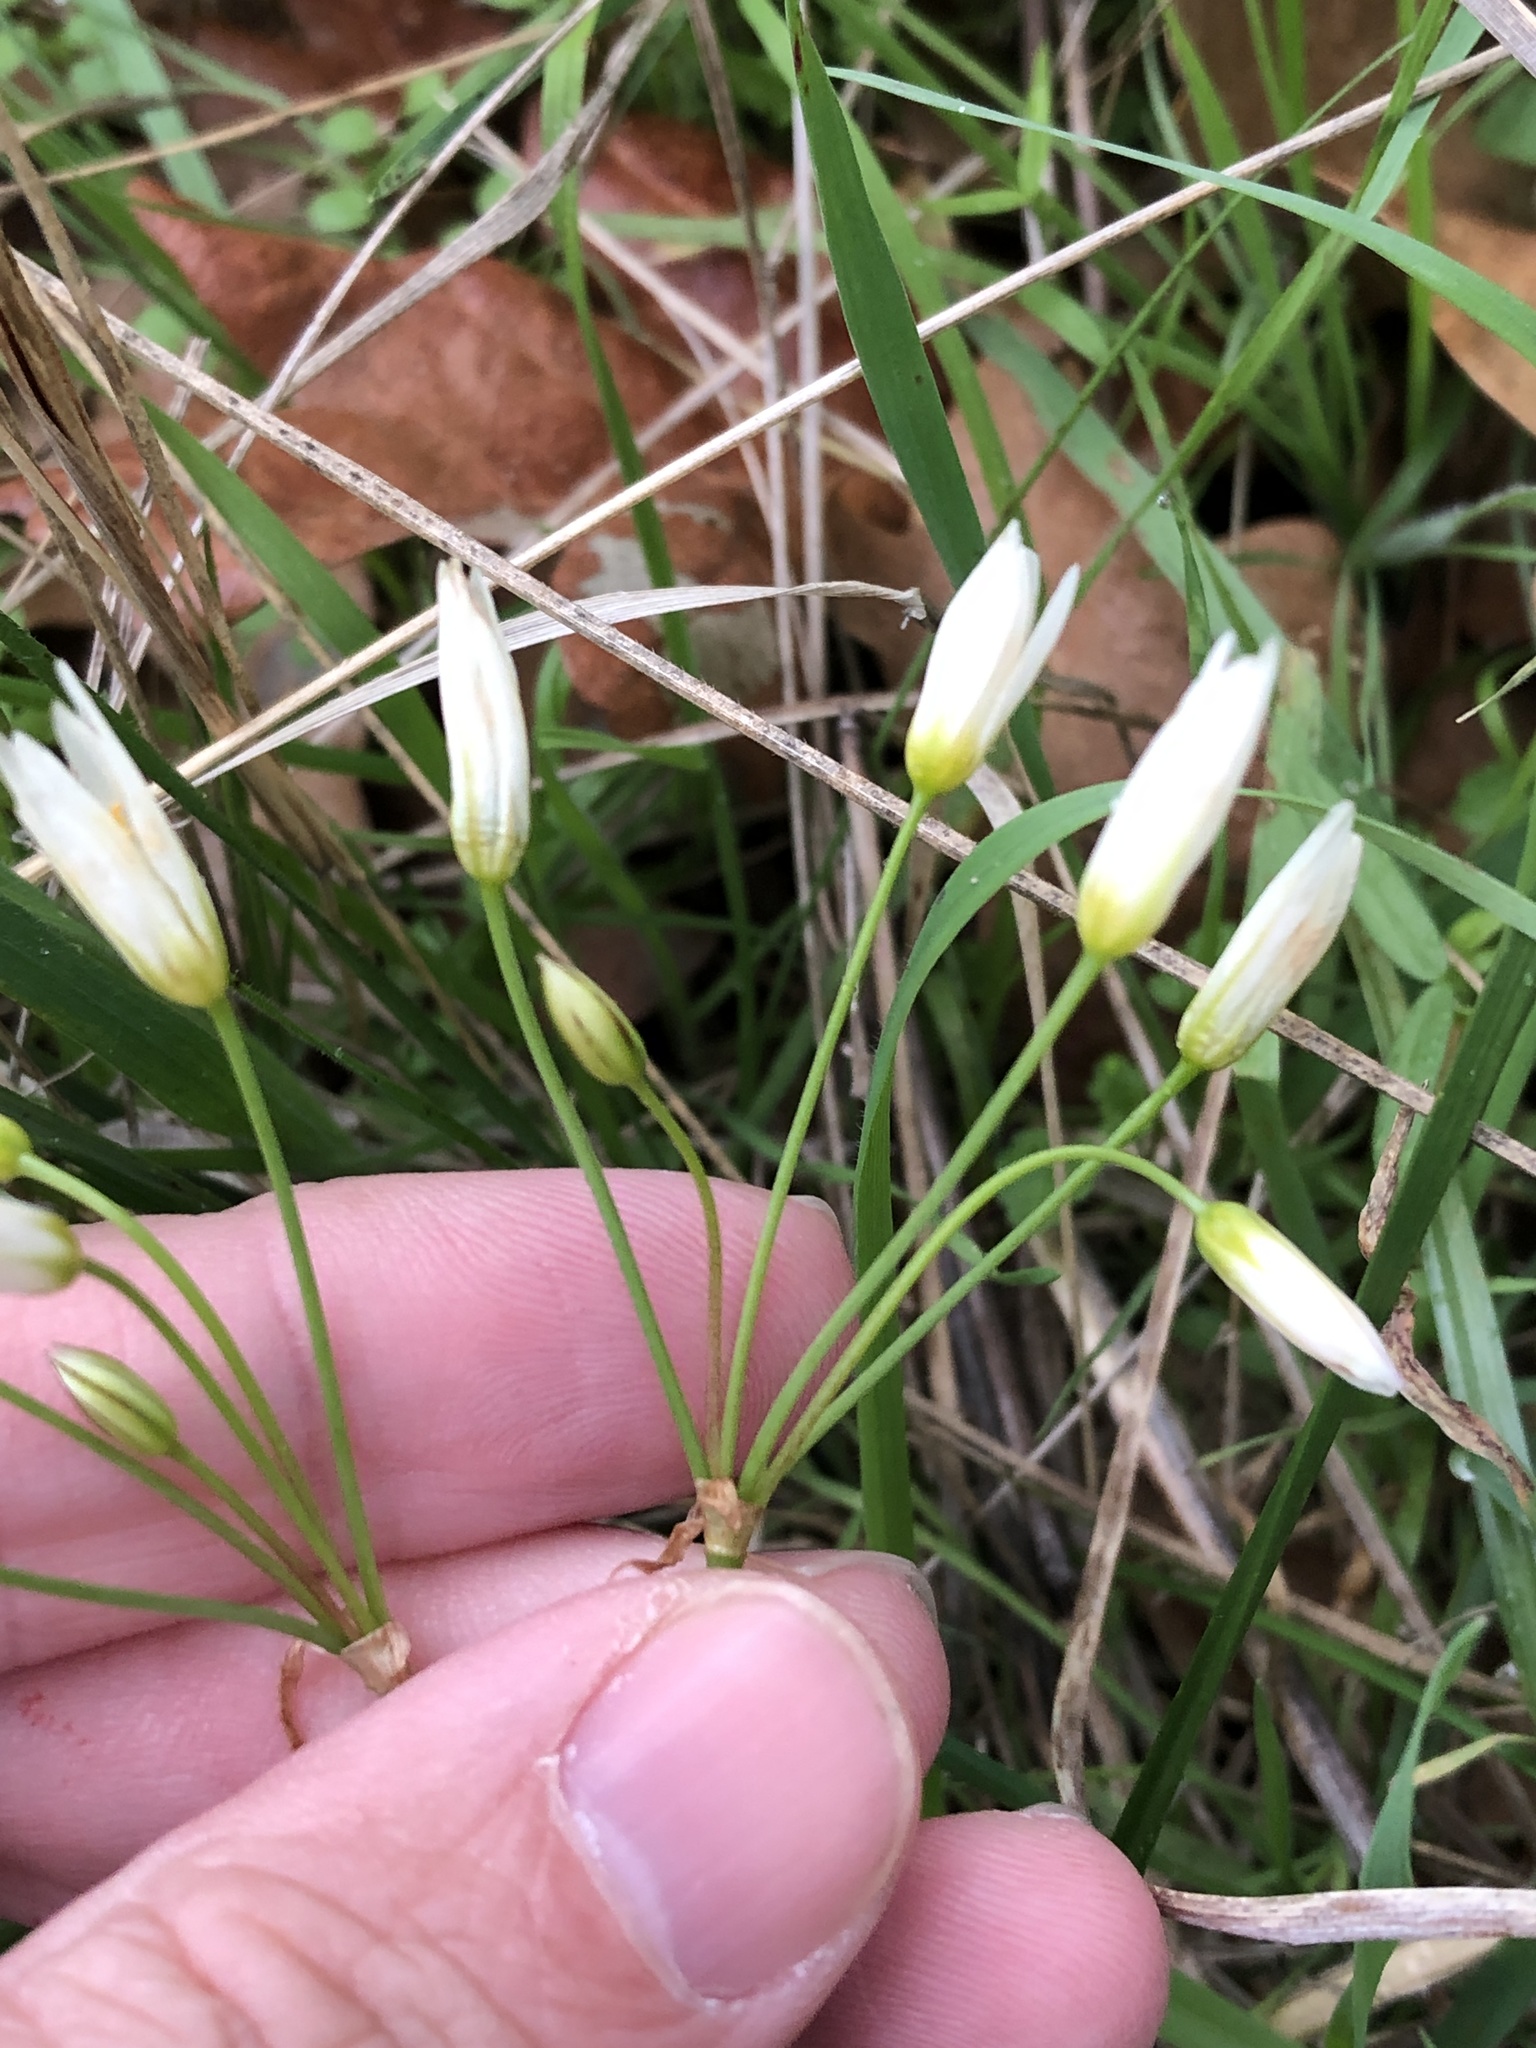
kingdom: Plantae
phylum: Tracheophyta
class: Liliopsida
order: Asparagales
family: Amaryllidaceae
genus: Nothoscordum
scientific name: Nothoscordum bivalve
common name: Crow-poison
